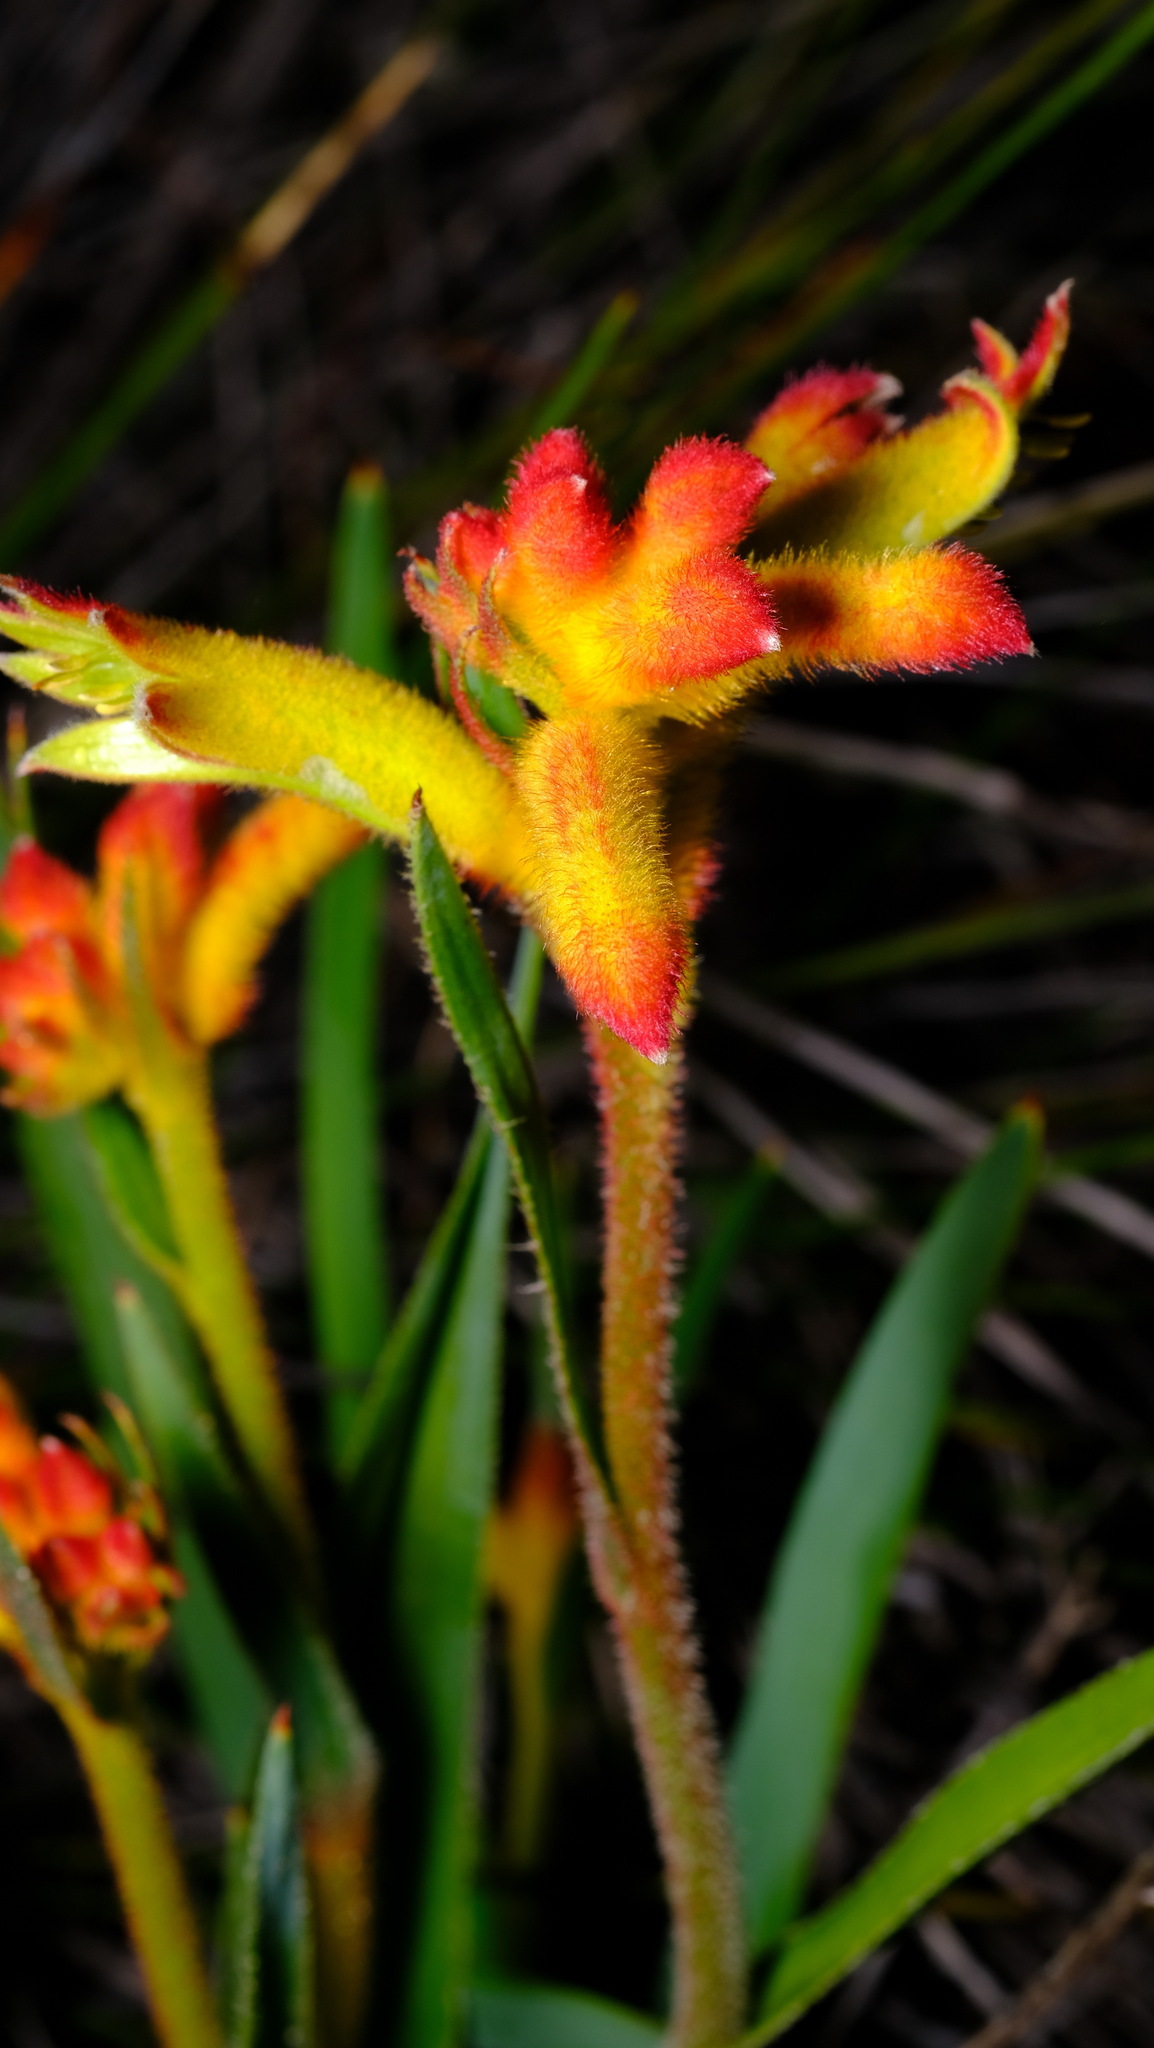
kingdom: Plantae
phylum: Tracheophyta
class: Liliopsida
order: Commelinales
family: Haemodoraceae
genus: Anigozanthos
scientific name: Anigozanthos humilis
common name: Cat's-paw
